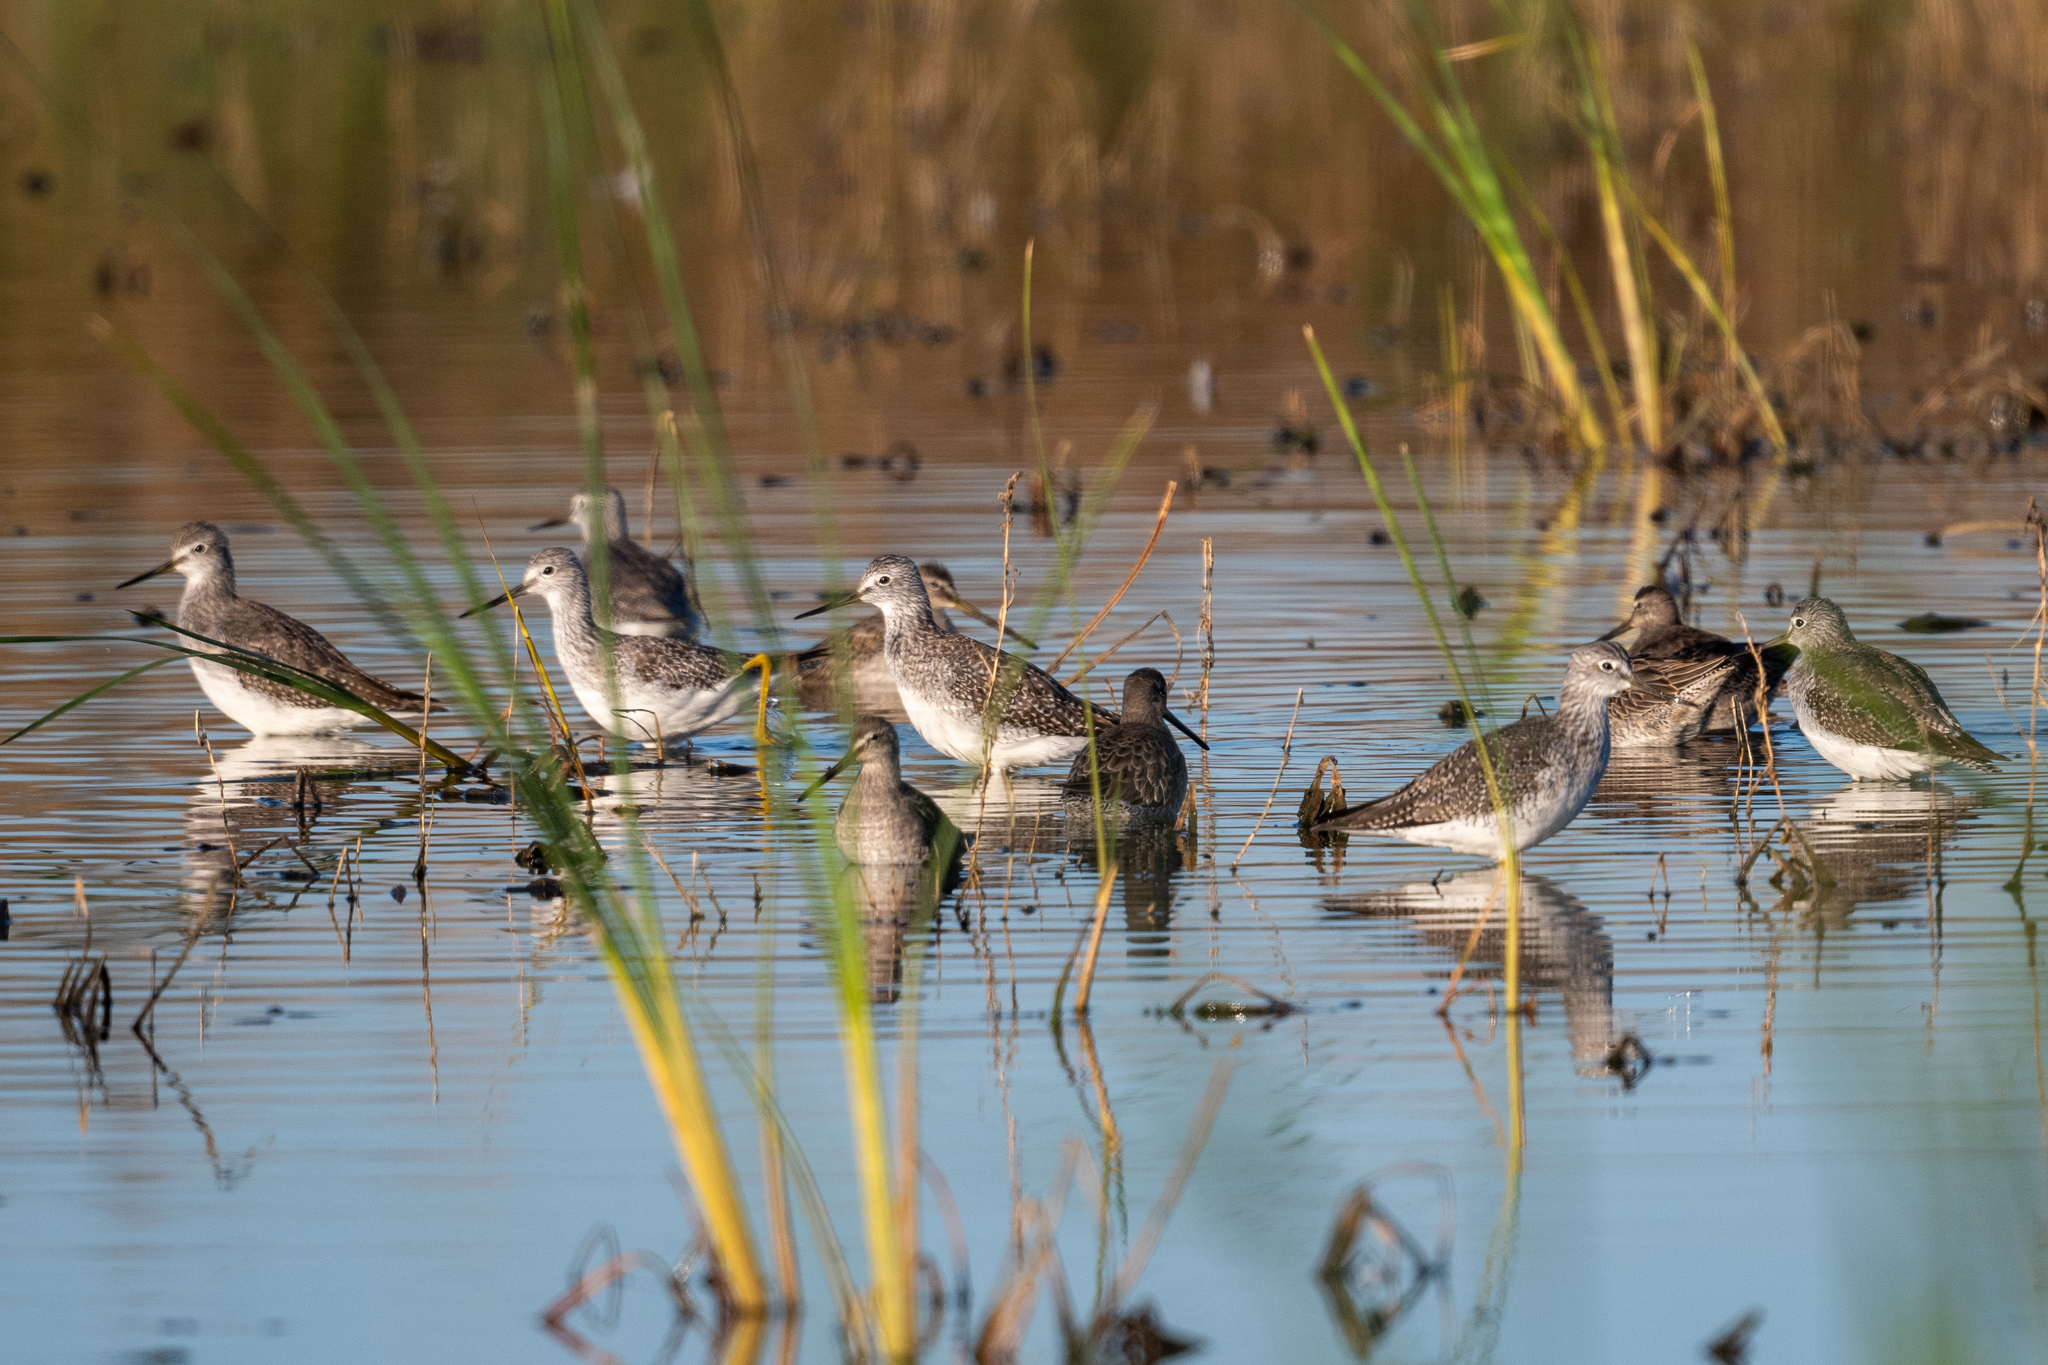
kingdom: Animalia
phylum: Chordata
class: Aves
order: Charadriiformes
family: Scolopacidae
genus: Tringa
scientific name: Tringa melanoleuca
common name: Greater yellowlegs
